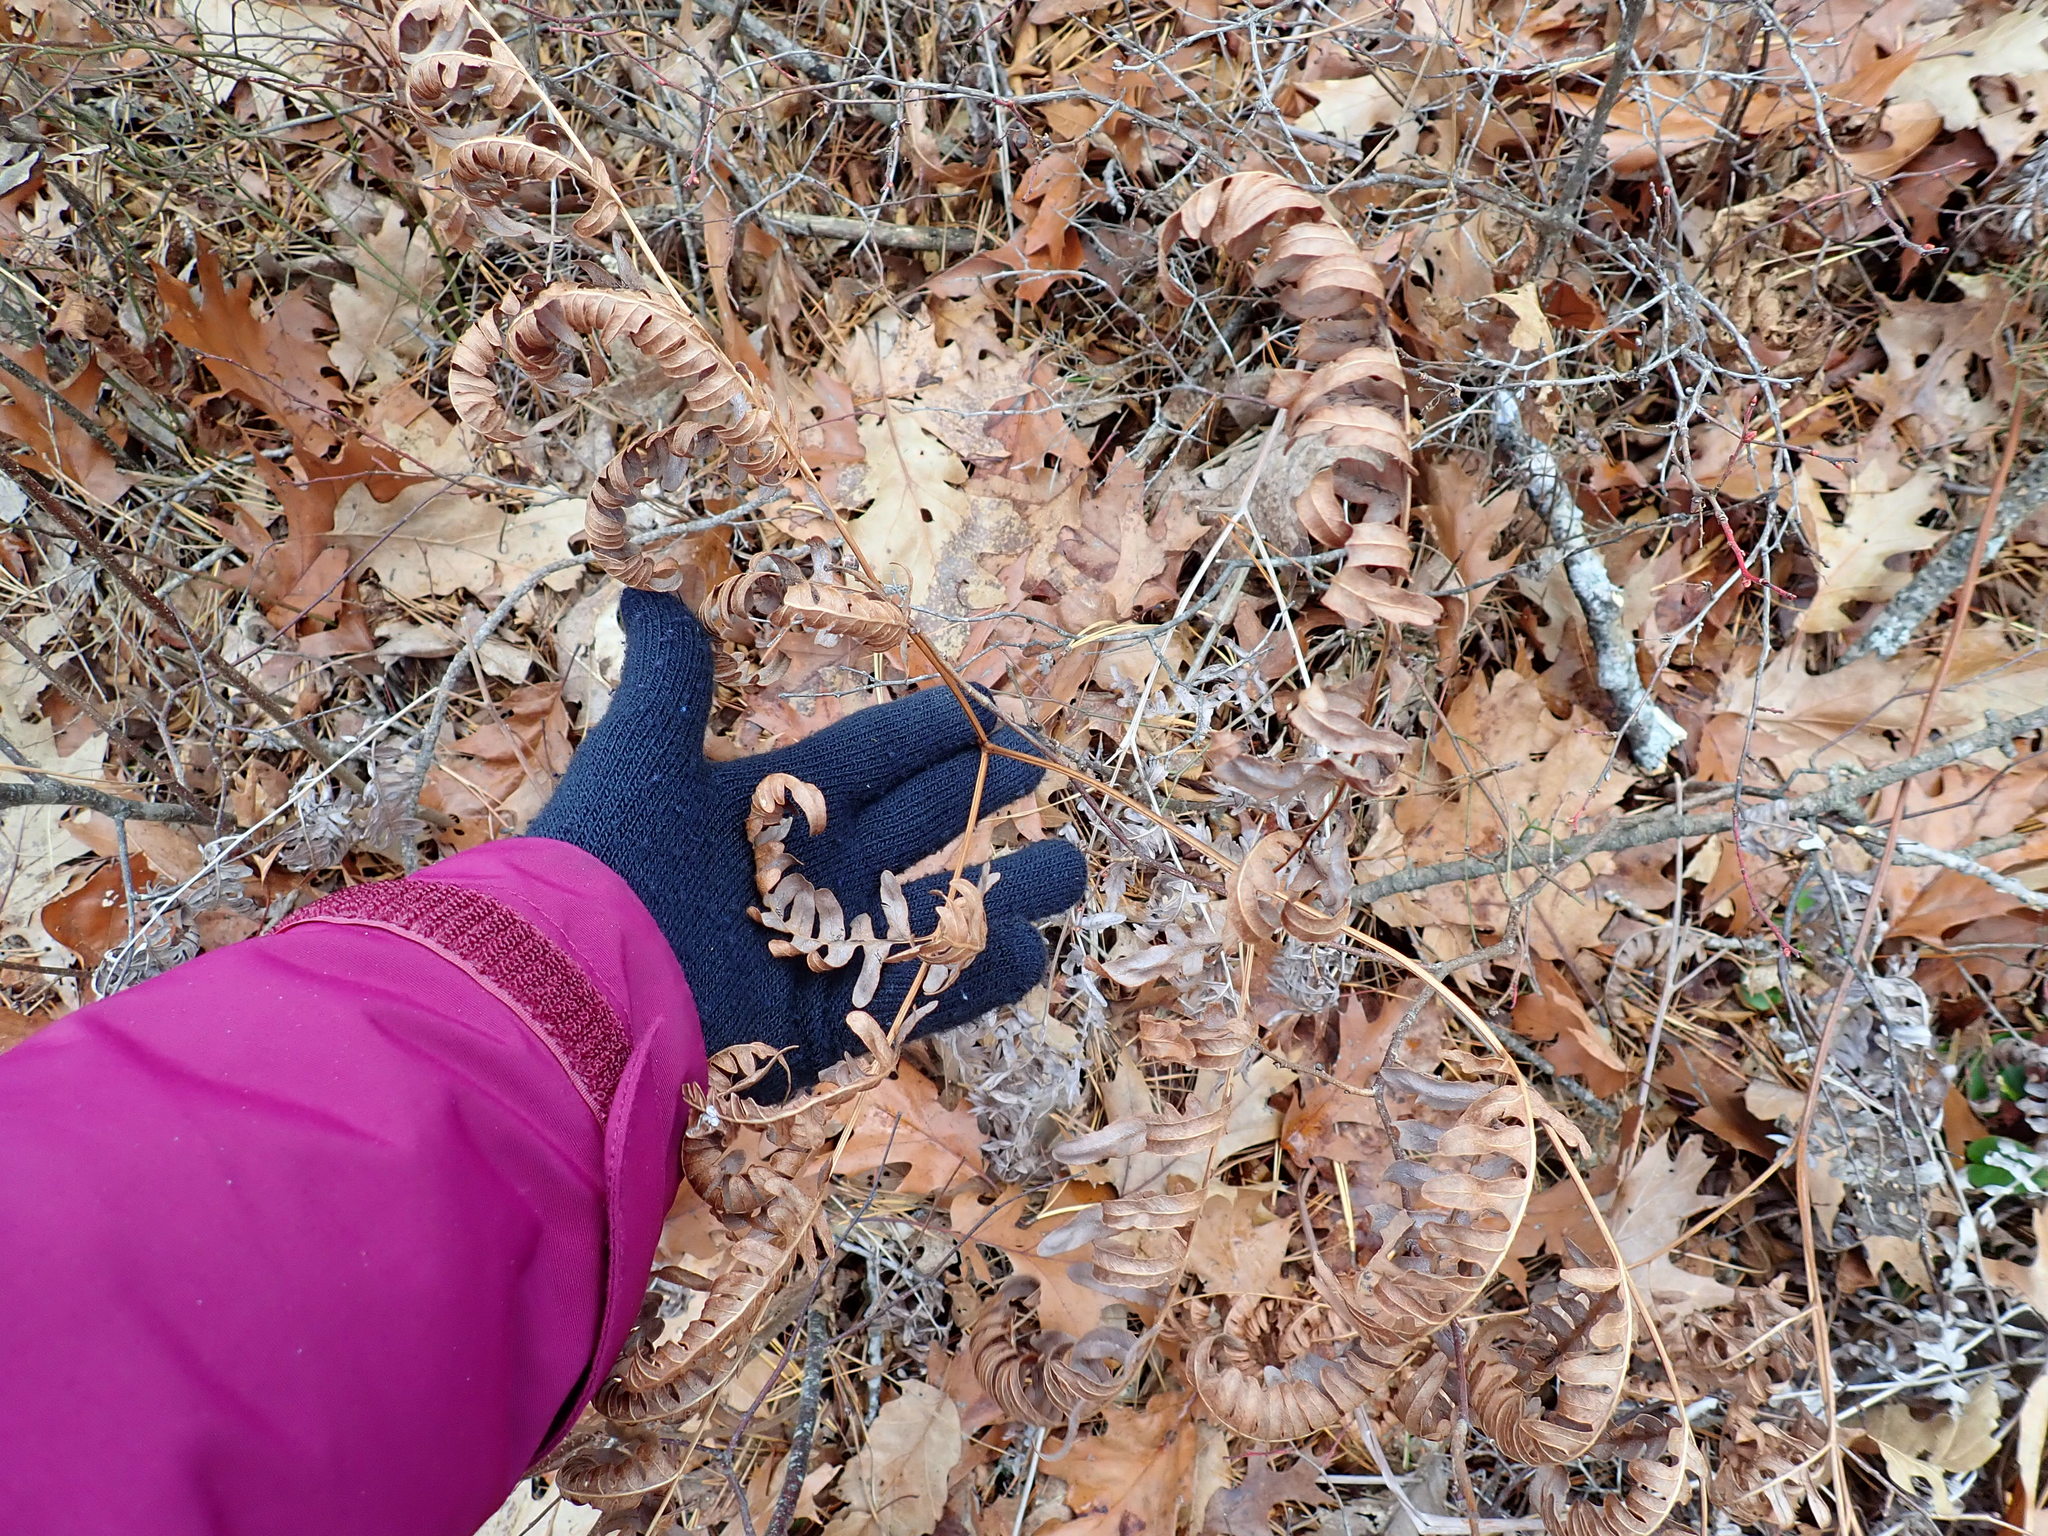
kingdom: Plantae
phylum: Tracheophyta
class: Polypodiopsida
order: Polypodiales
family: Dennstaedtiaceae
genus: Pteridium
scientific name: Pteridium aquilinum
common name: Bracken
